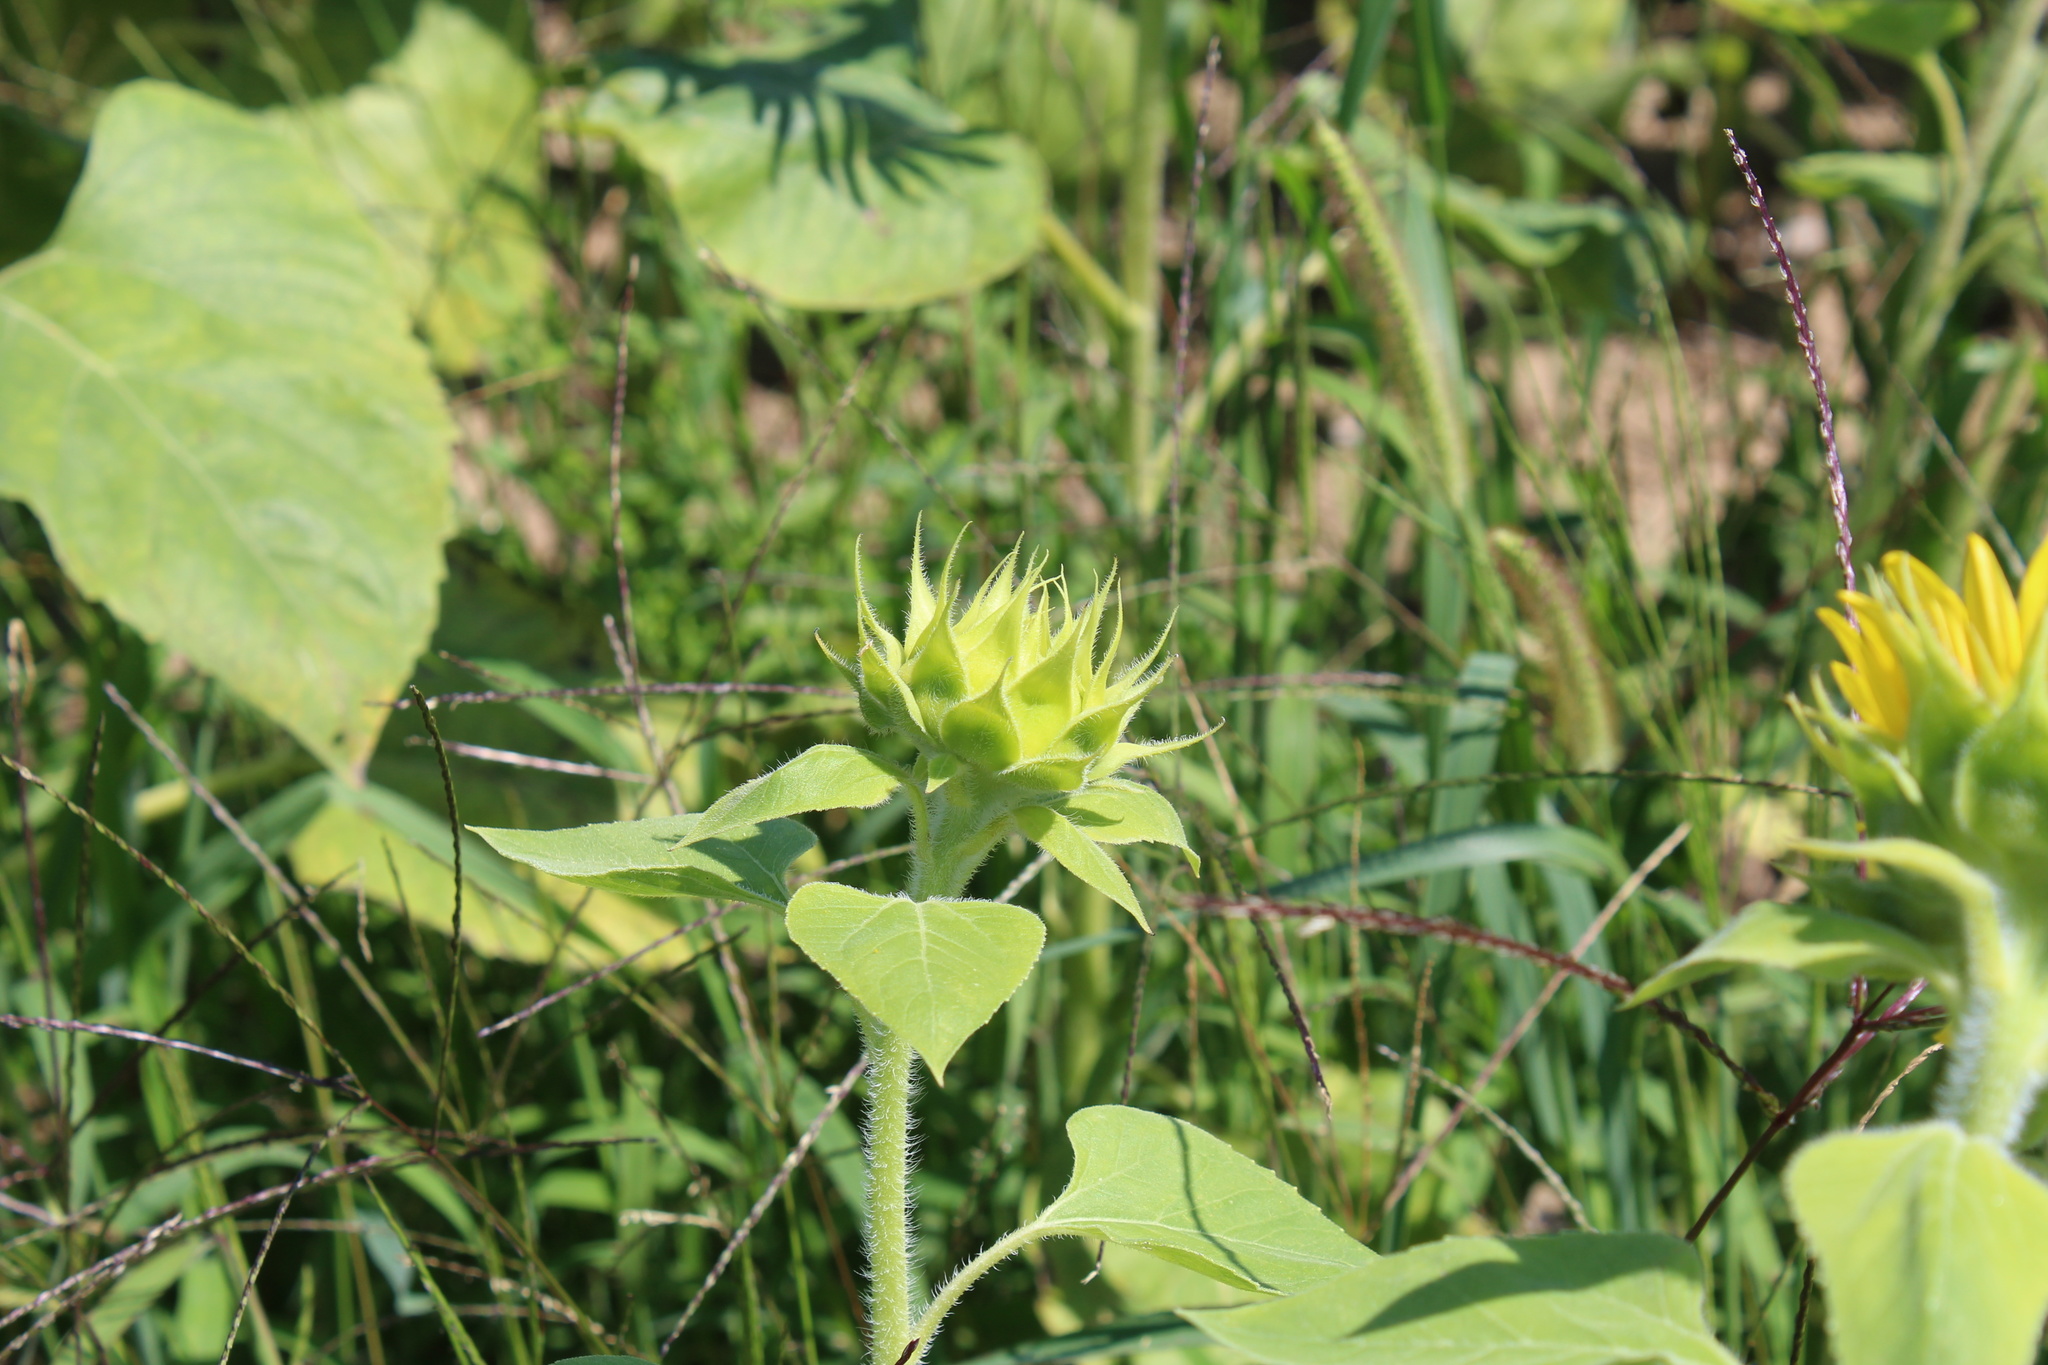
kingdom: Plantae
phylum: Tracheophyta
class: Magnoliopsida
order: Asterales
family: Asteraceae
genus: Helianthus
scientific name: Helianthus annuus
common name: Sunflower
